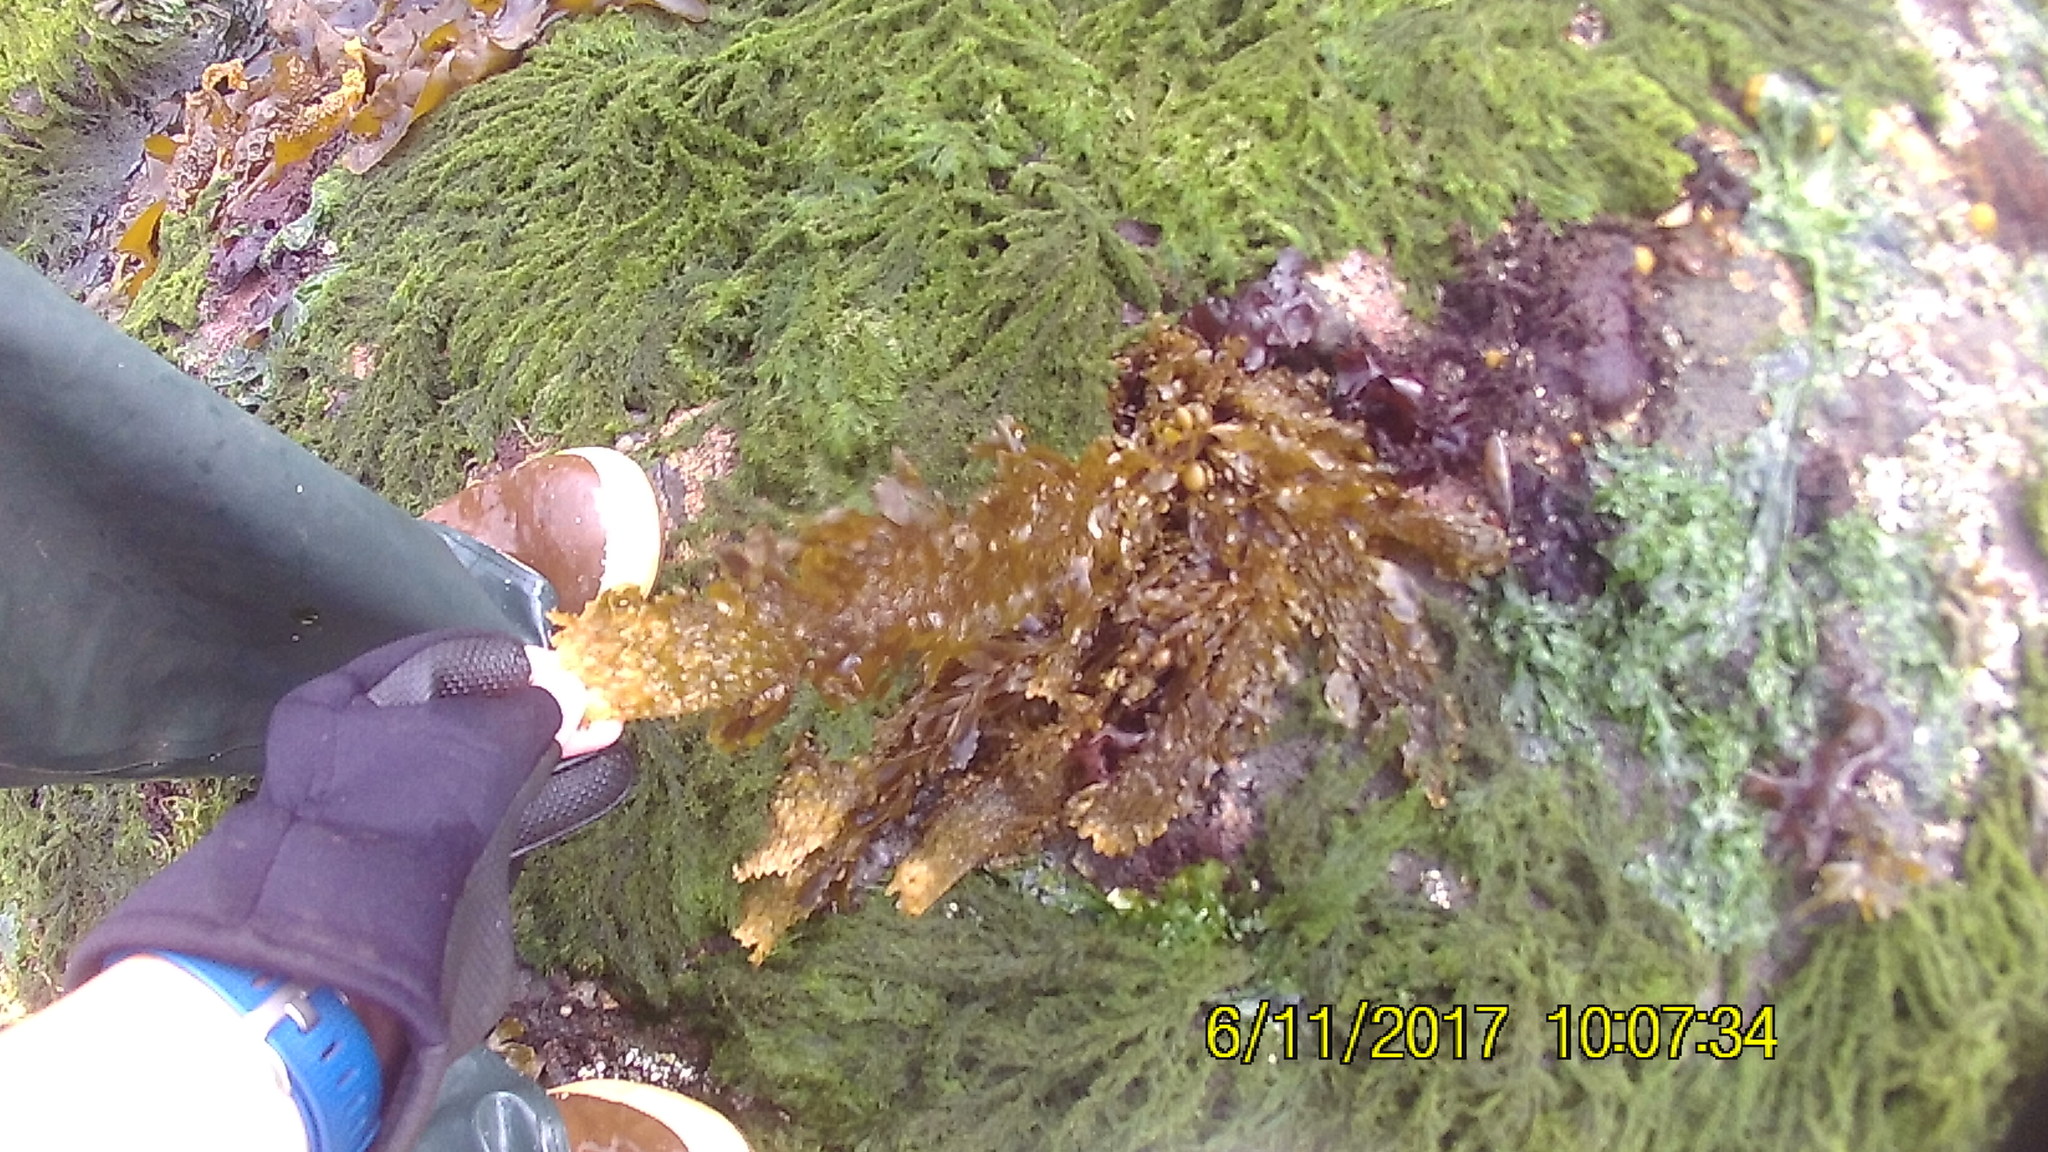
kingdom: Chromista
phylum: Ochrophyta
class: Phaeophyceae
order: Laminariales
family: Lessoniaceae
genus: Egregia
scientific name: Egregia menziesii
